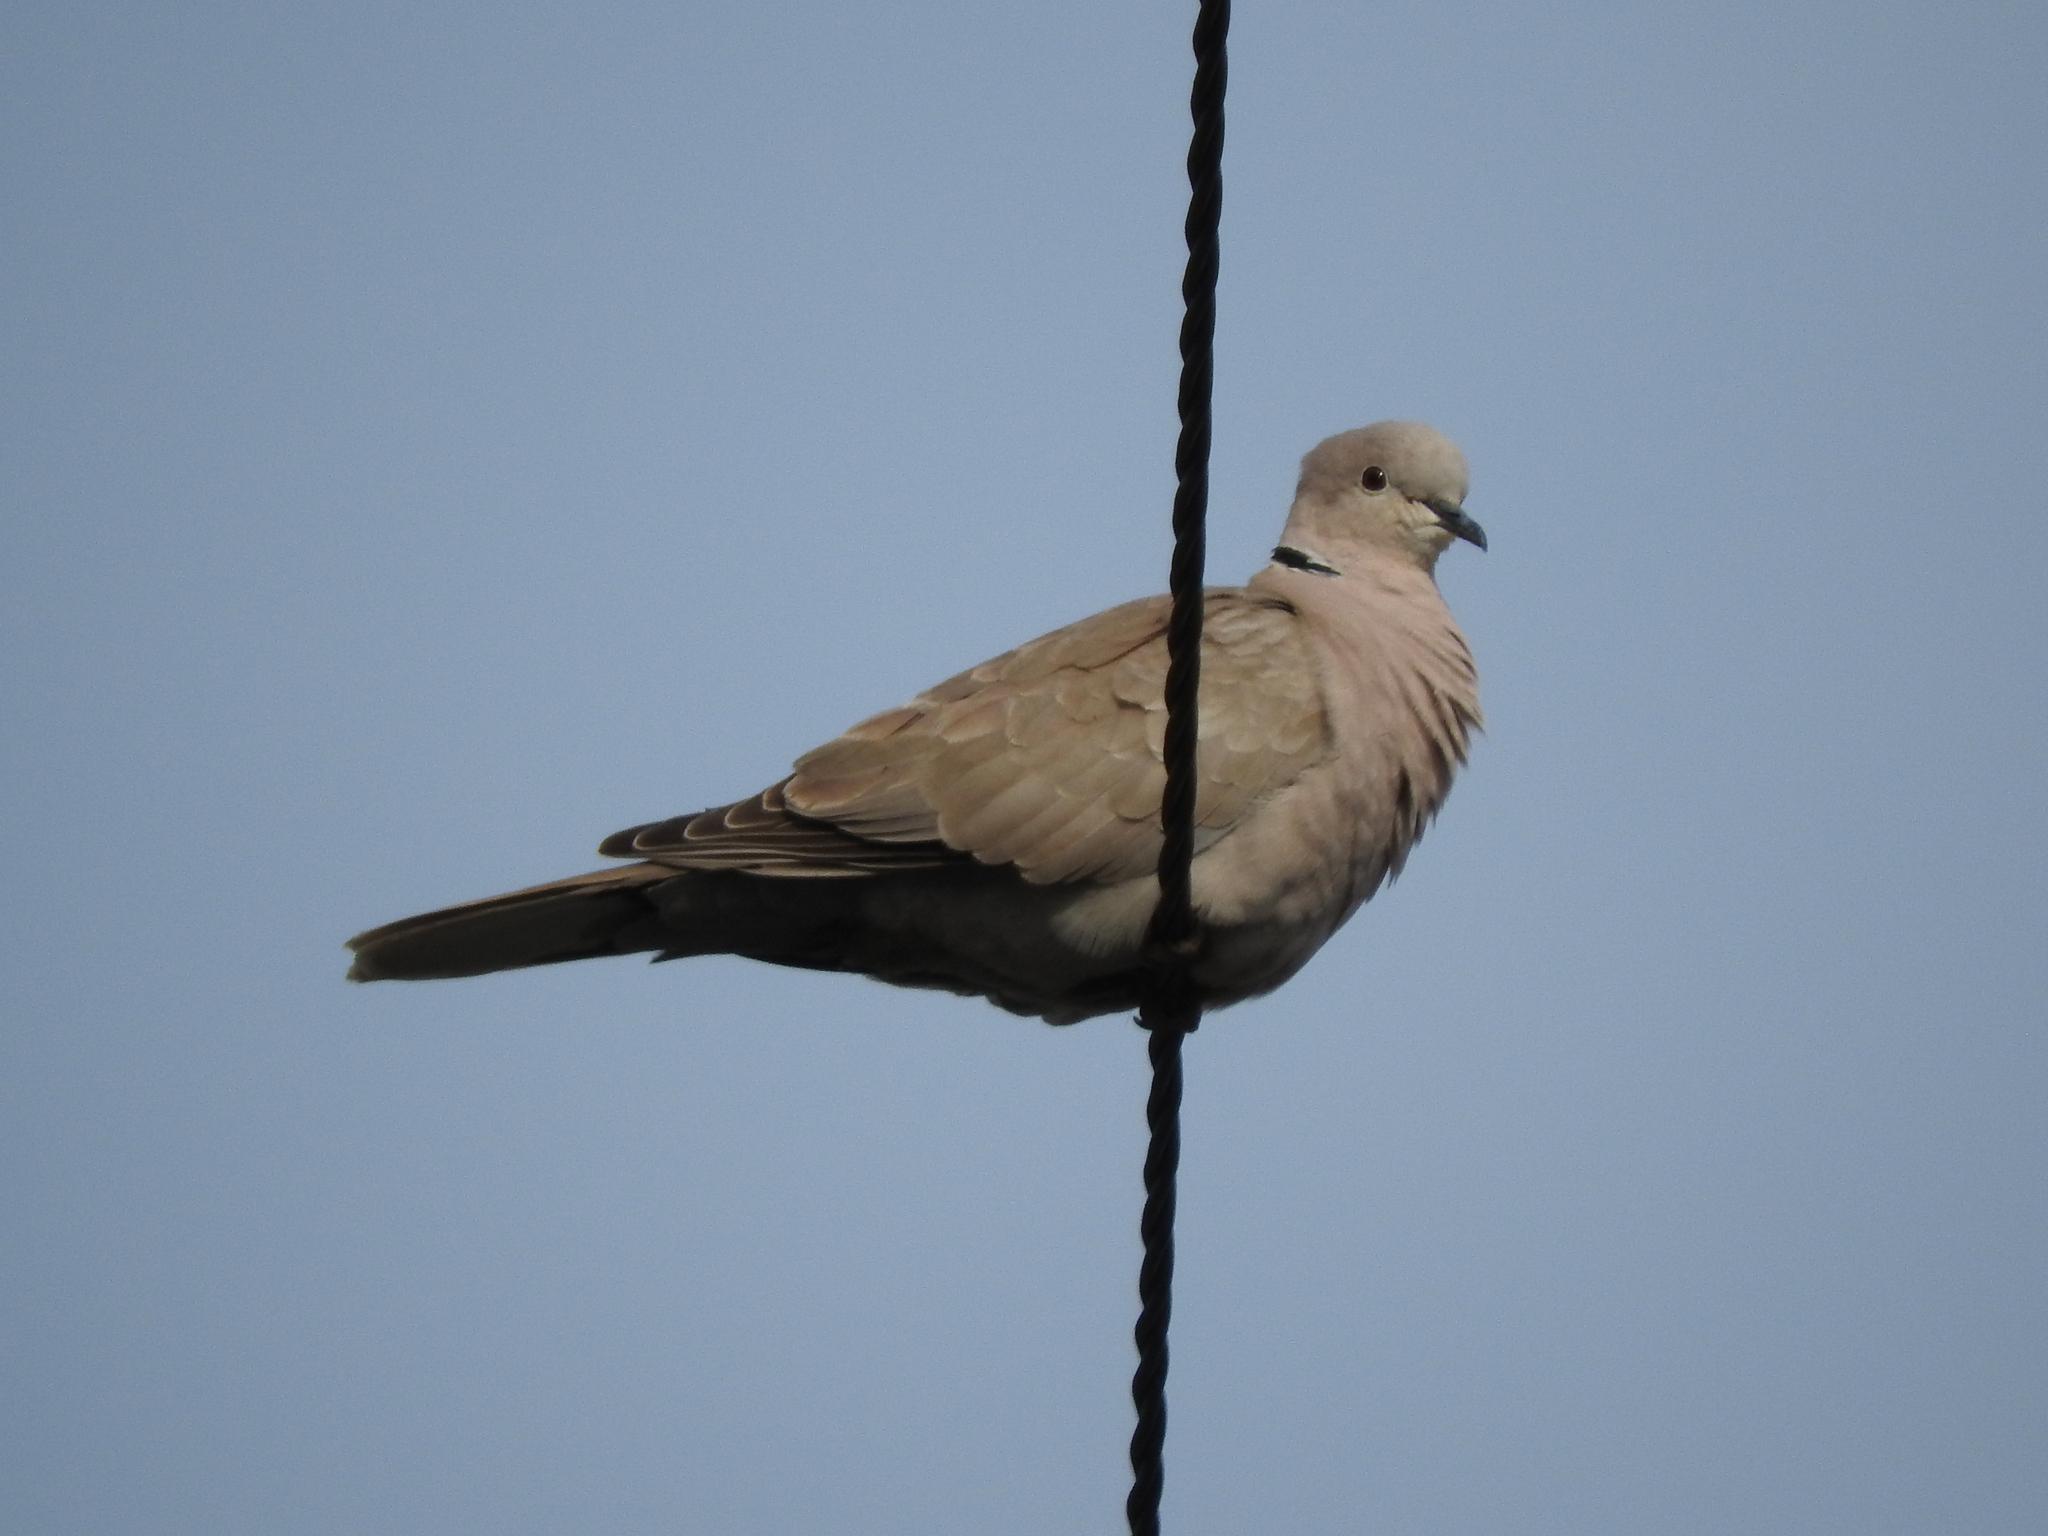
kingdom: Animalia
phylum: Chordata
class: Aves
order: Columbiformes
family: Columbidae
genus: Streptopelia
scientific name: Streptopelia decaocto
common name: Eurasian collared dove
